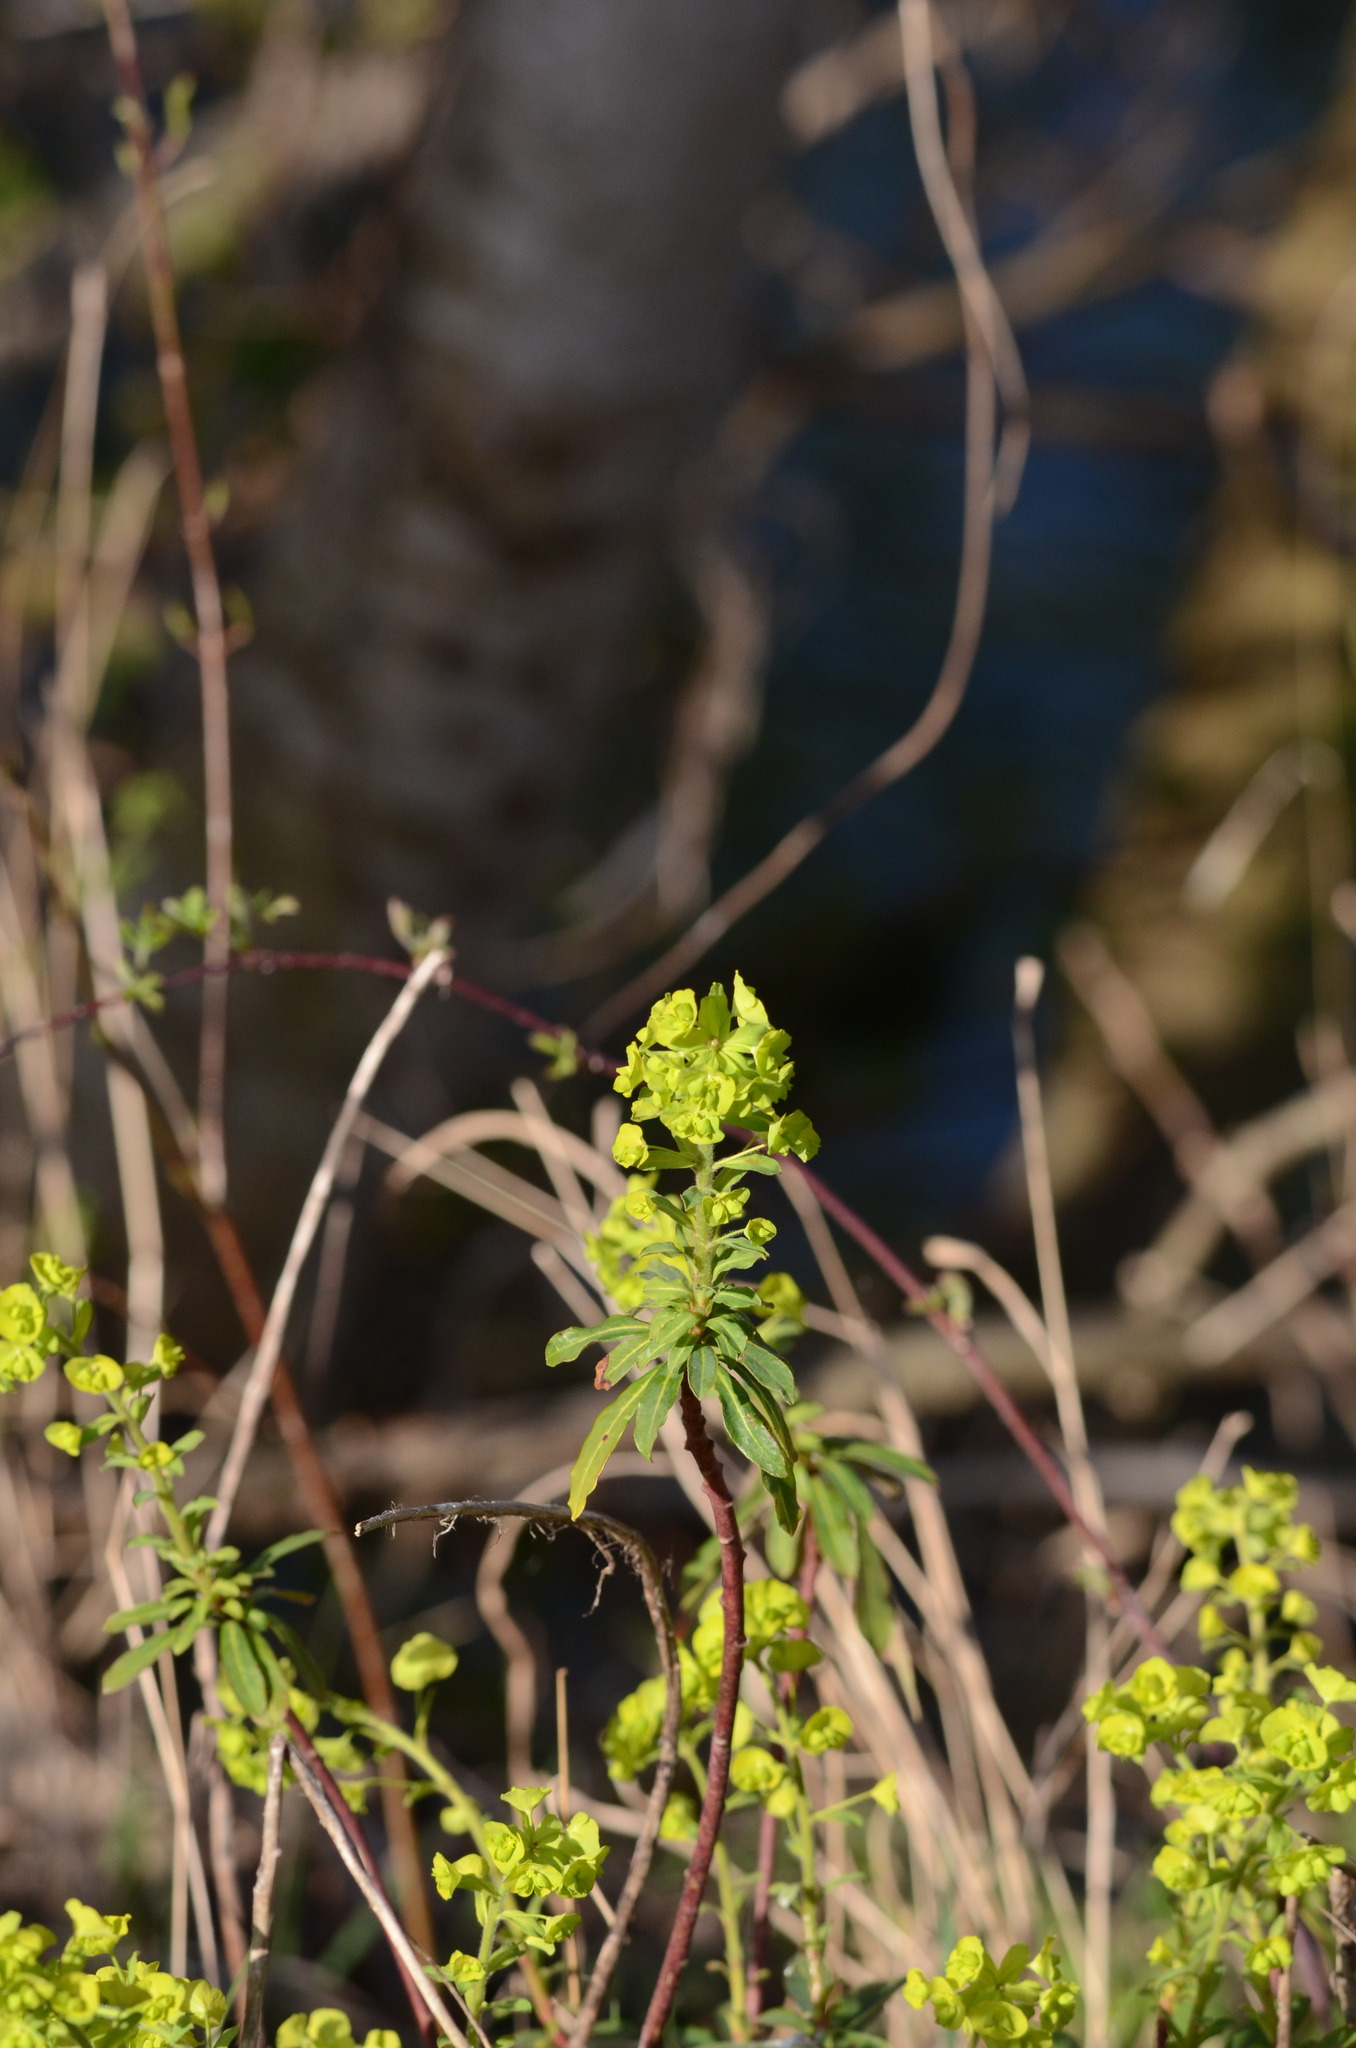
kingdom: Plantae
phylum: Tracheophyta
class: Magnoliopsida
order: Malpighiales
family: Euphorbiaceae
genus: Euphorbia
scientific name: Euphorbia amygdaloides
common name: Wood spurge
